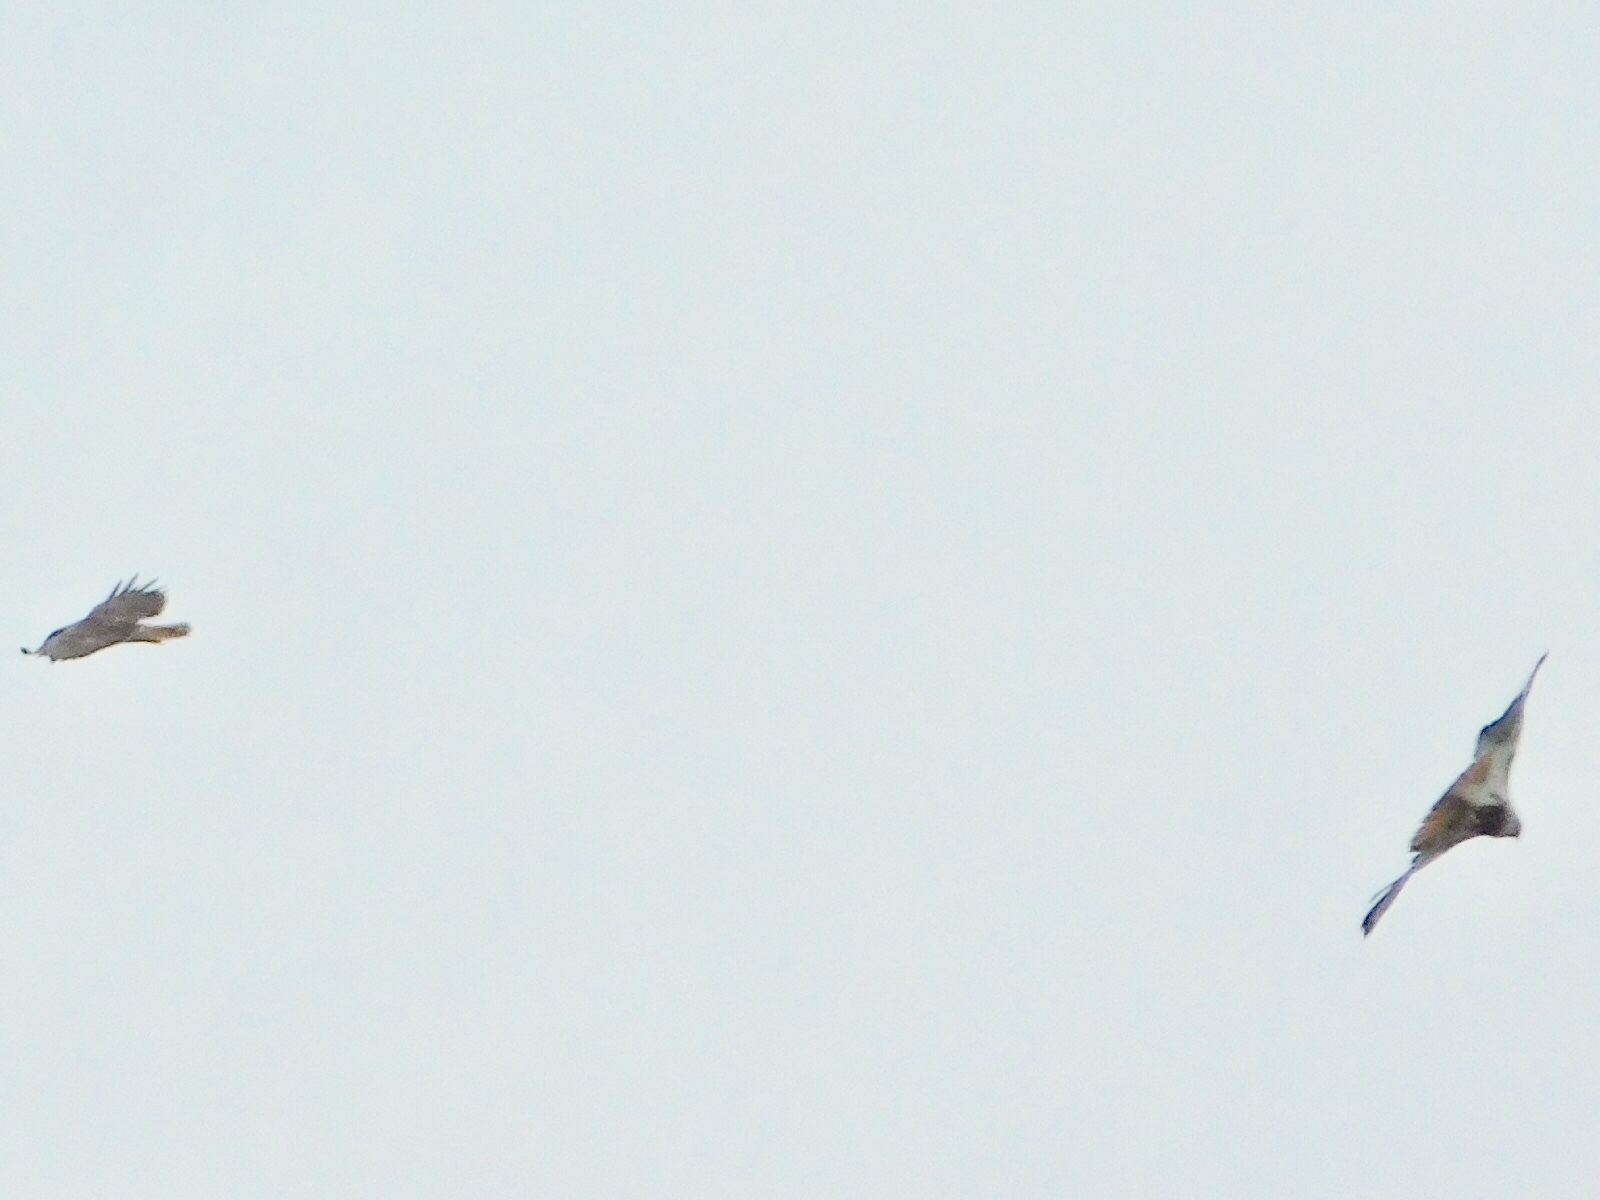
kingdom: Animalia
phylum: Chordata
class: Aves
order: Accipitriformes
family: Accipitridae
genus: Buteo
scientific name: Buteo jamaicensis
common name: Red-tailed hawk
